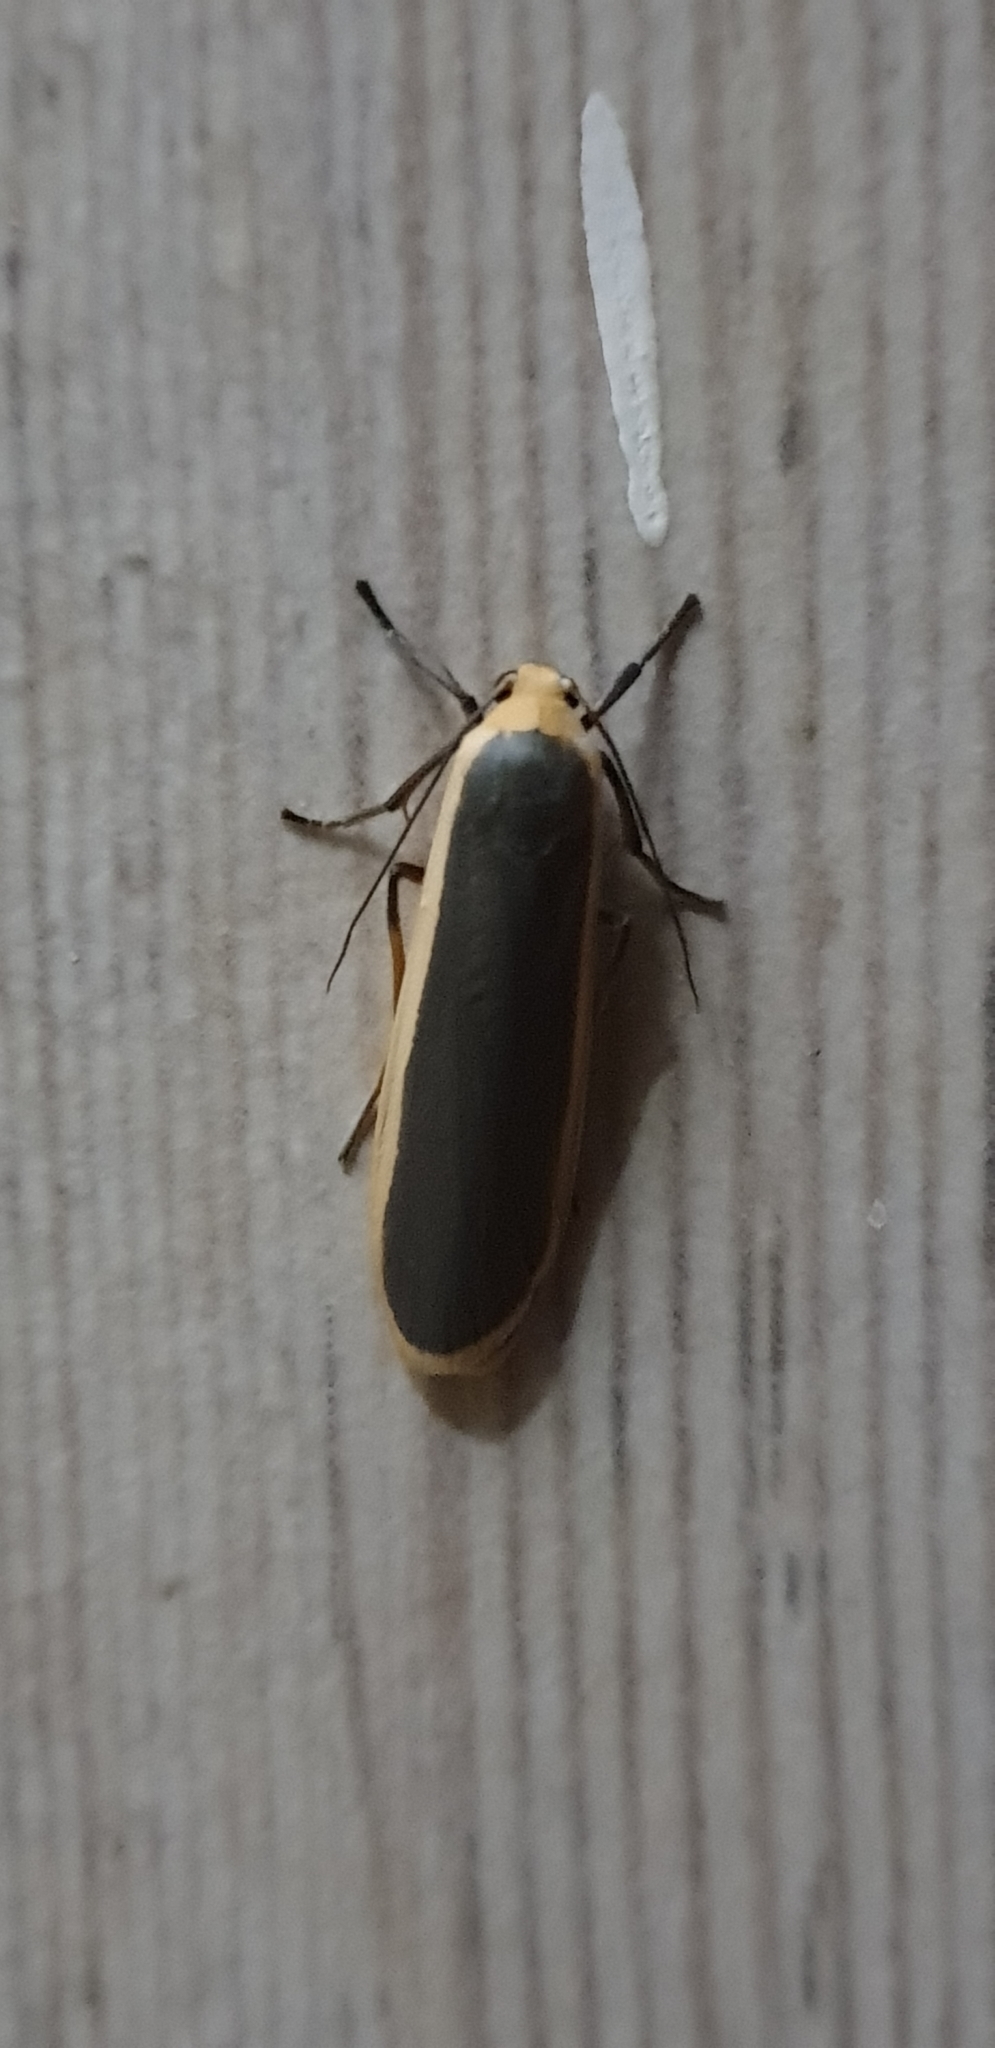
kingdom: Animalia
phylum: Arthropoda
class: Insecta
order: Lepidoptera
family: Erebidae
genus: Brunia
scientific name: Brunia antica
